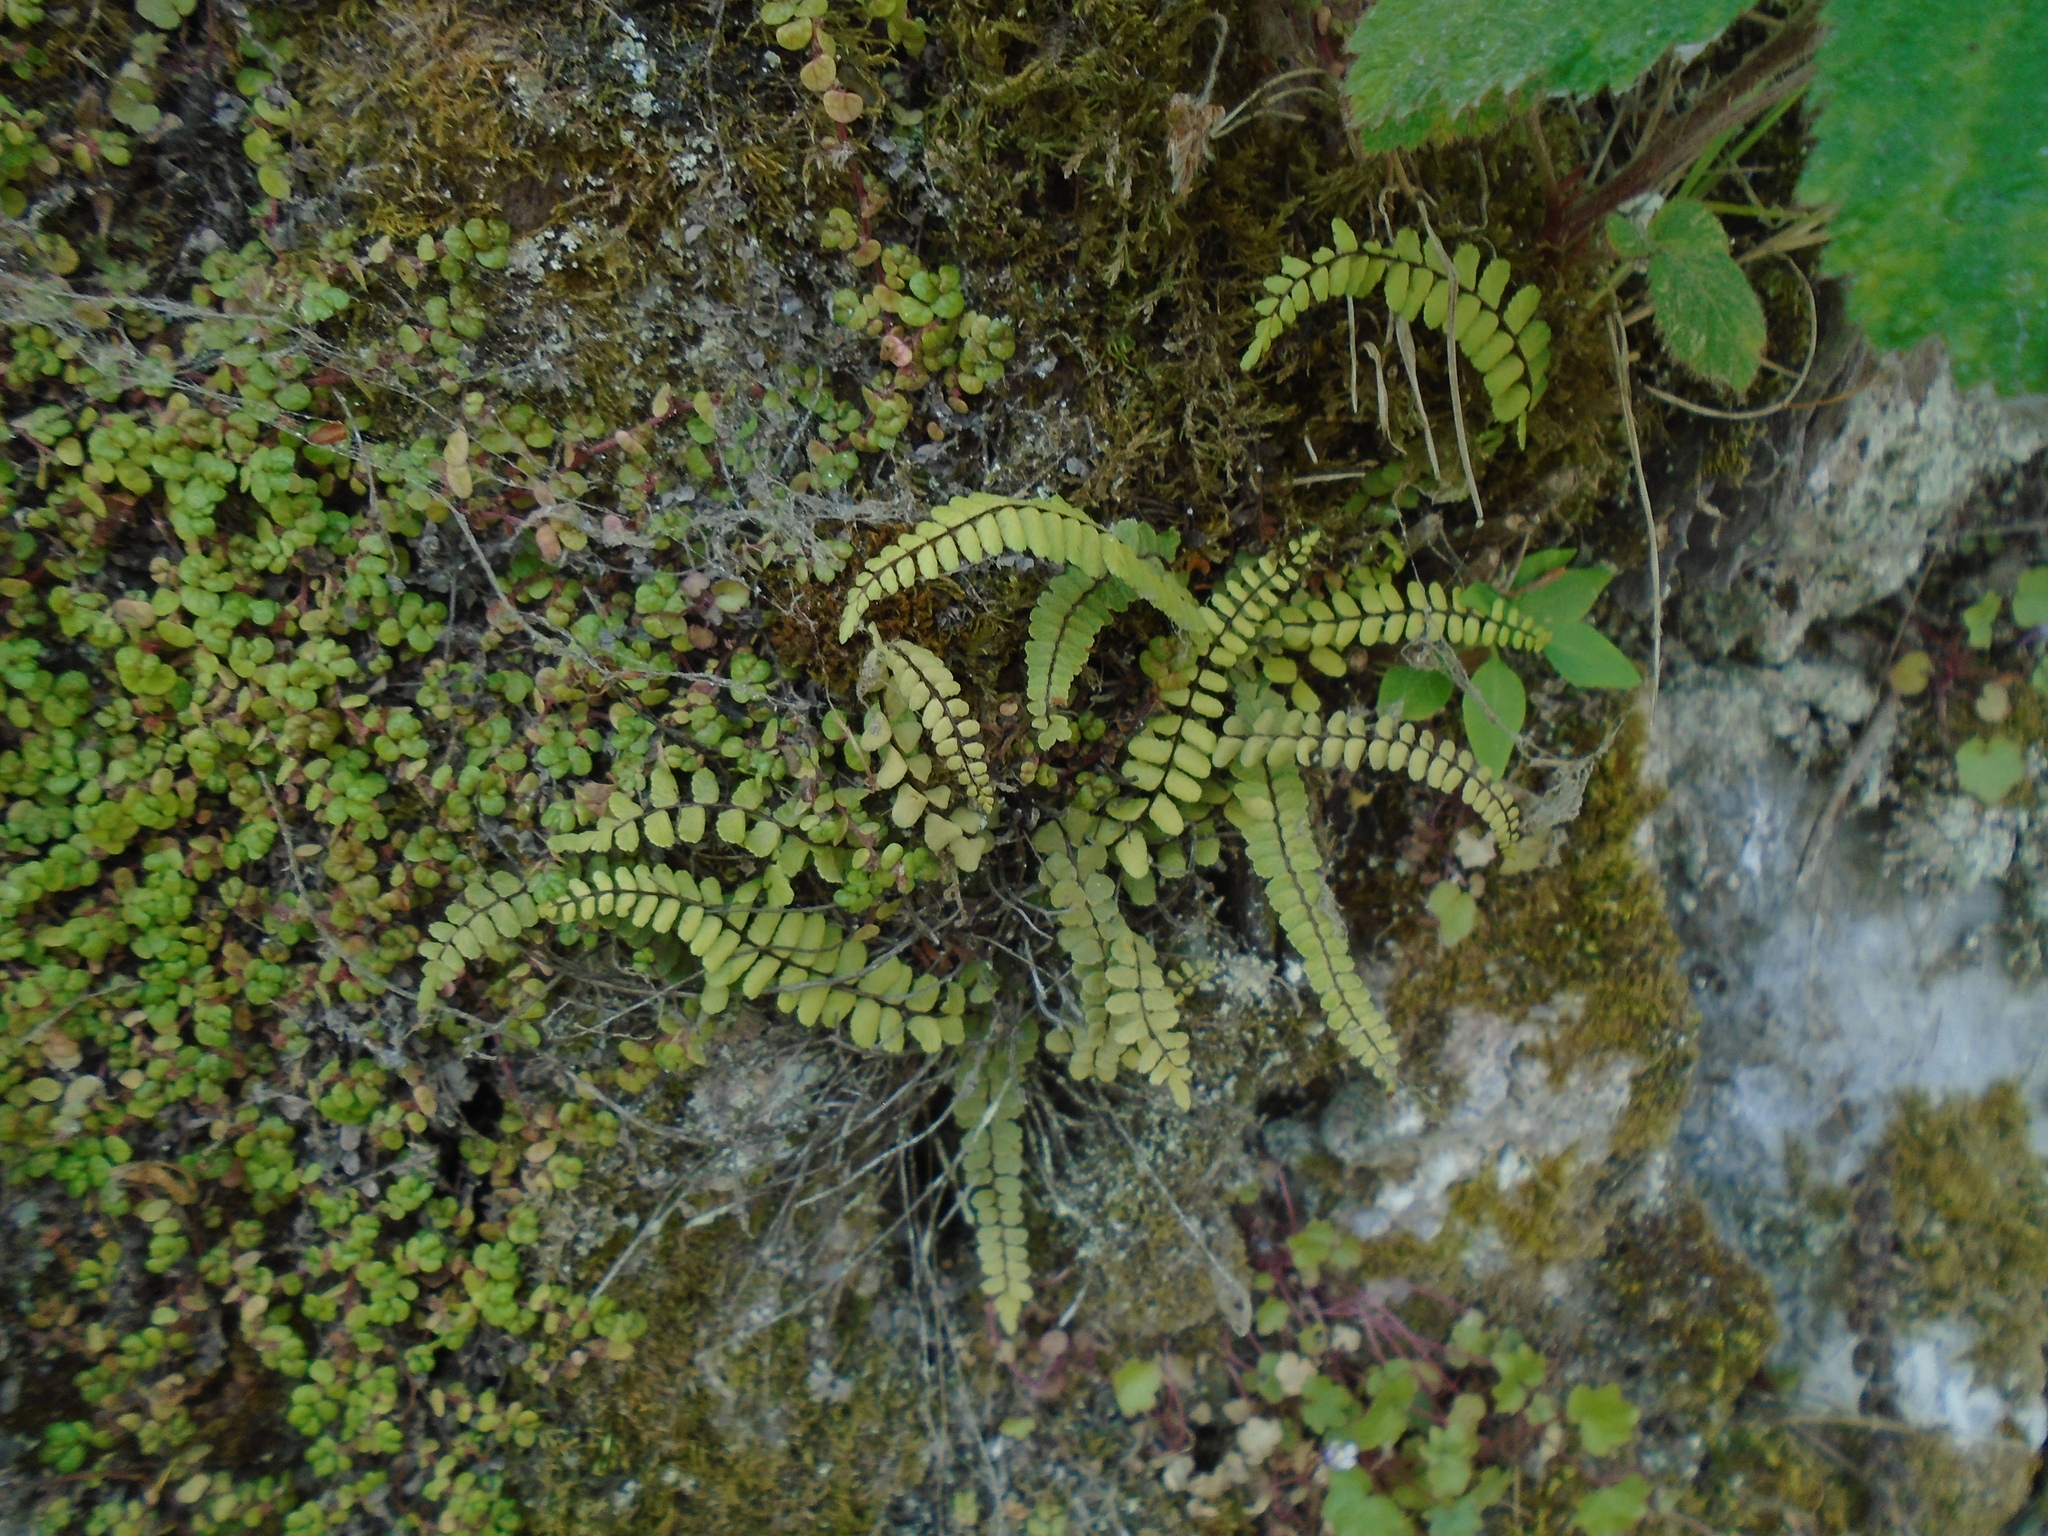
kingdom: Plantae
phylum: Tracheophyta
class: Polypodiopsida
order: Polypodiales
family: Aspleniaceae
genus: Asplenium
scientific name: Asplenium trichomanes
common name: Maidenhair spleenwort
